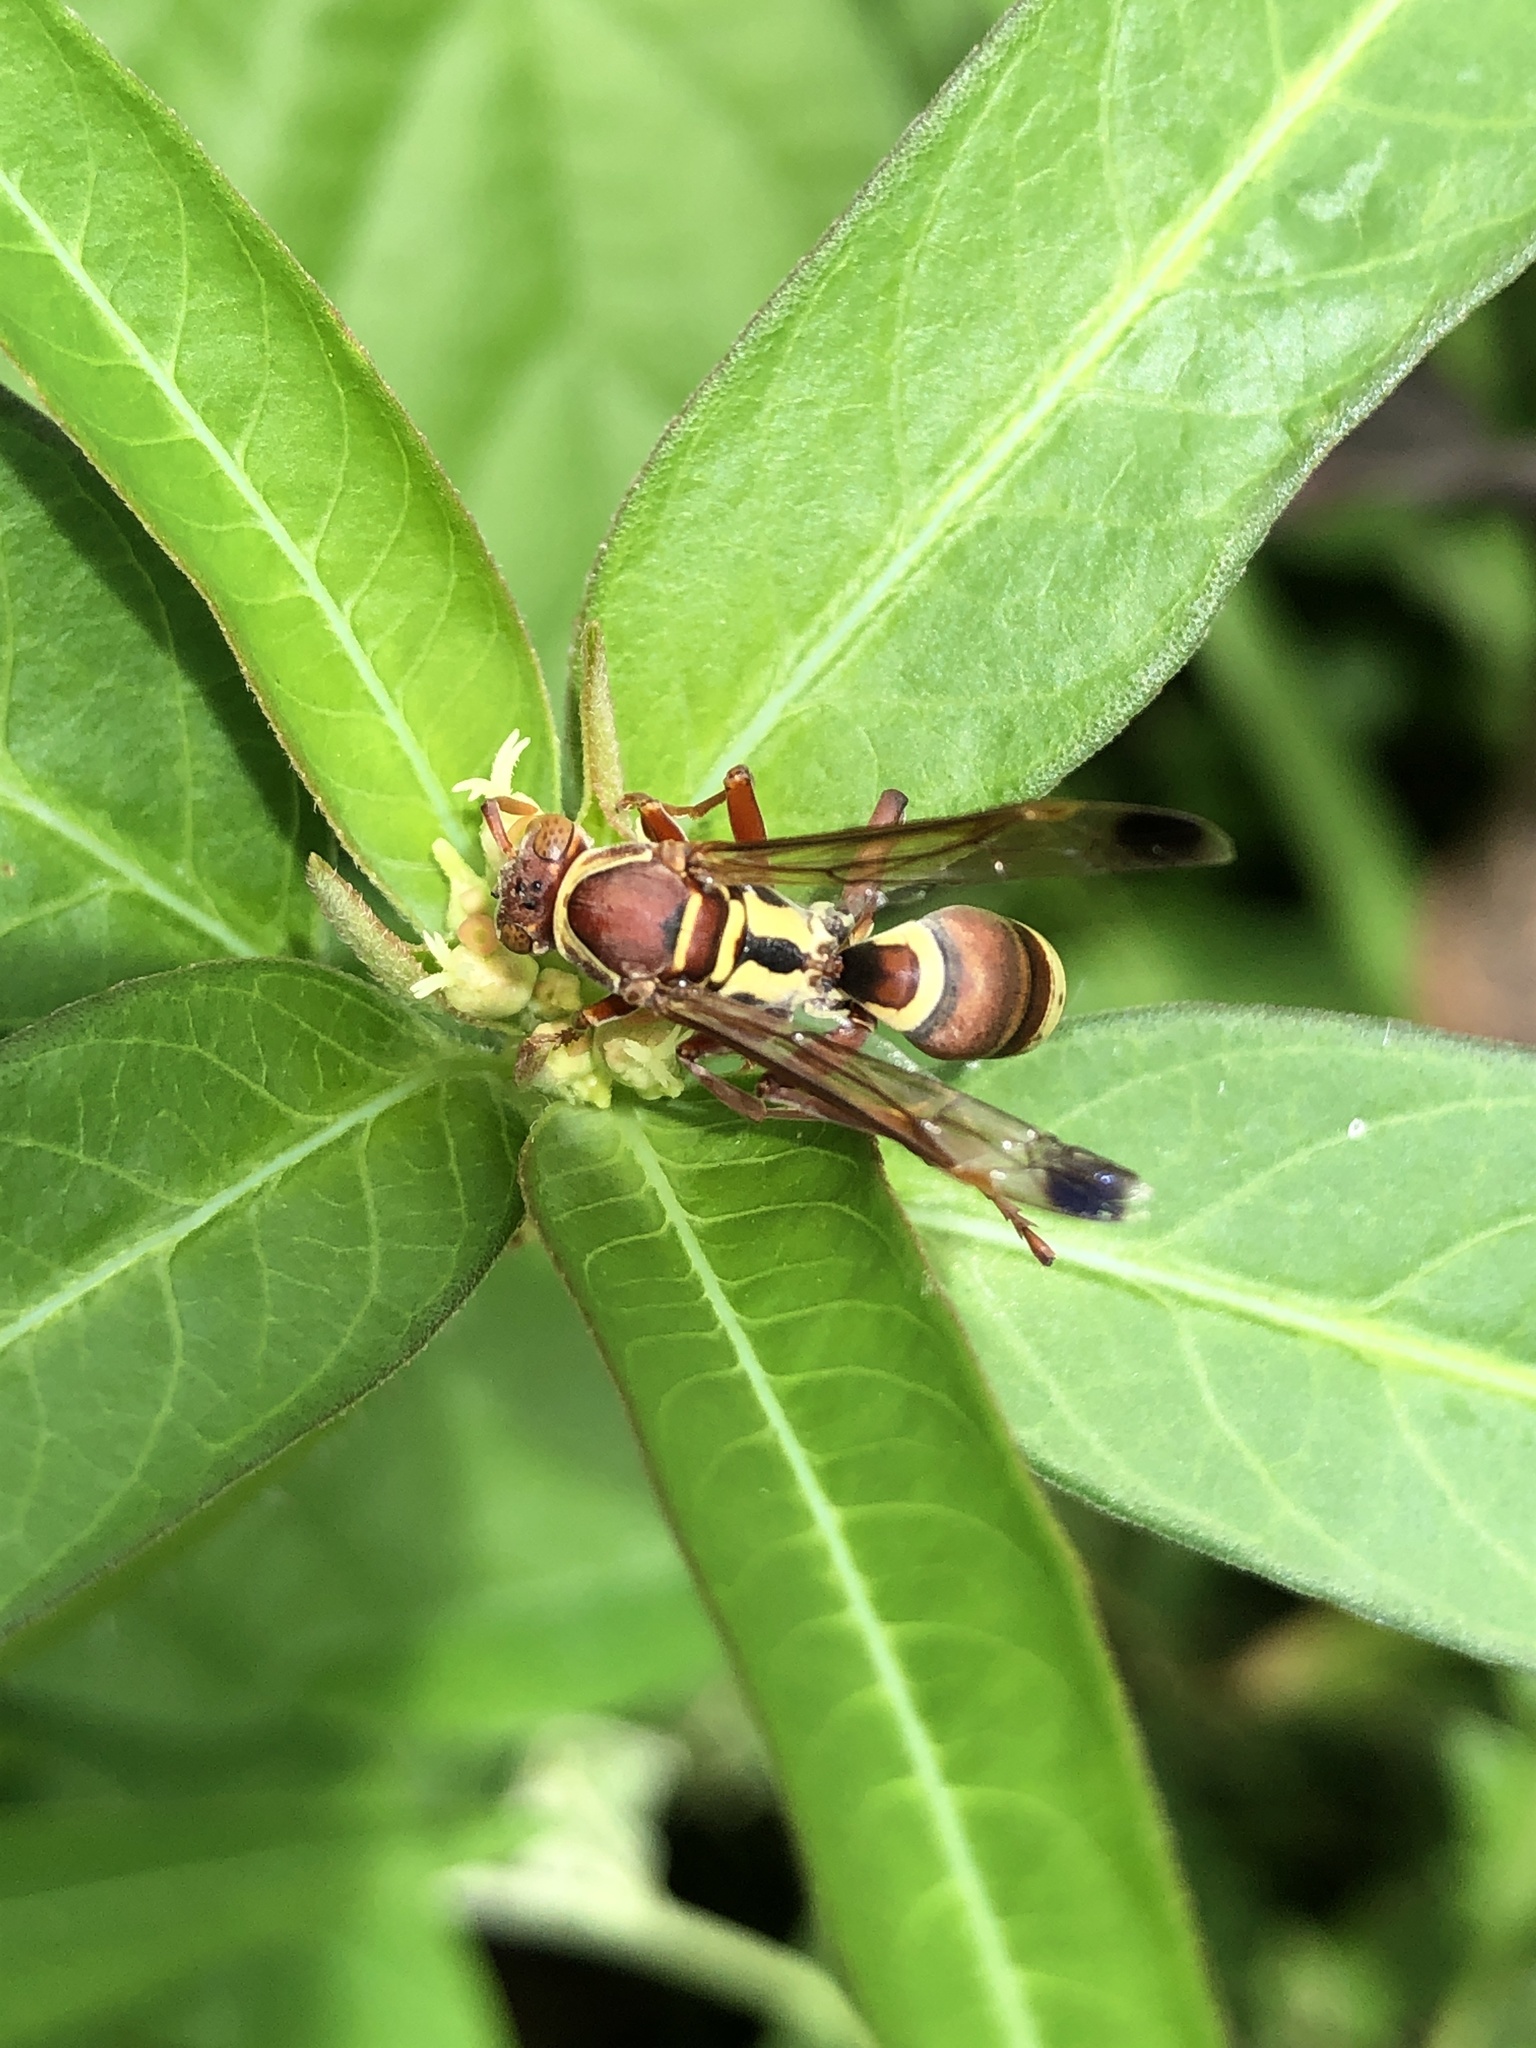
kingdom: Animalia
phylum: Arthropoda
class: Insecta
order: Hymenoptera
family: Eumenidae
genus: Polistes
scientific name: Polistes stigma
